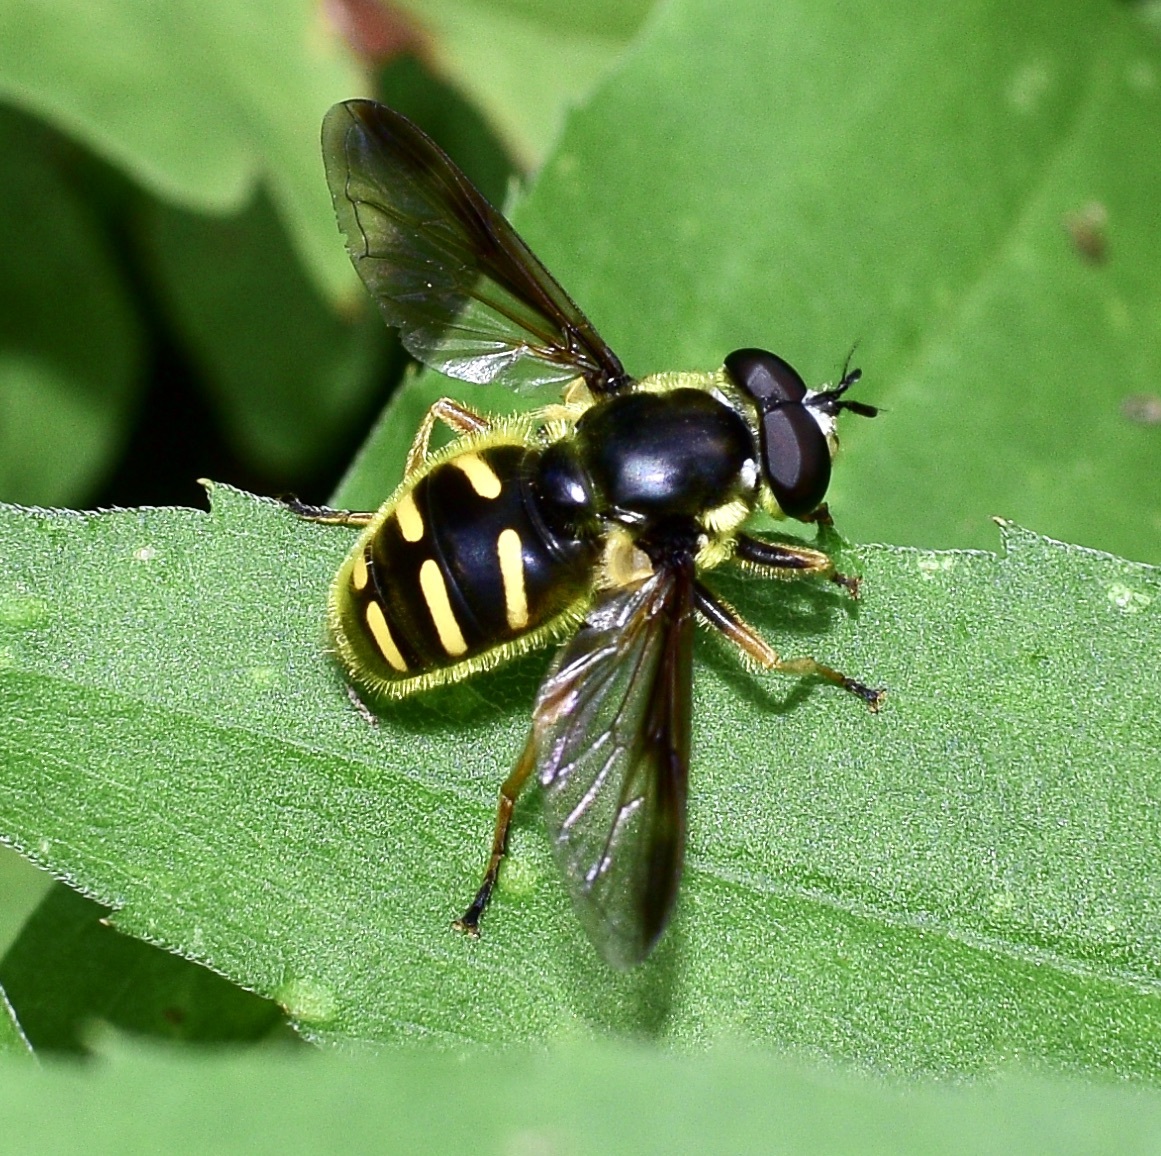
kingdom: Animalia
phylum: Arthropoda
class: Insecta
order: Diptera
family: Syrphidae
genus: Sericomyia
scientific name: Sericomyia chrysotoxoides
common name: Oblique-banded pond fly
